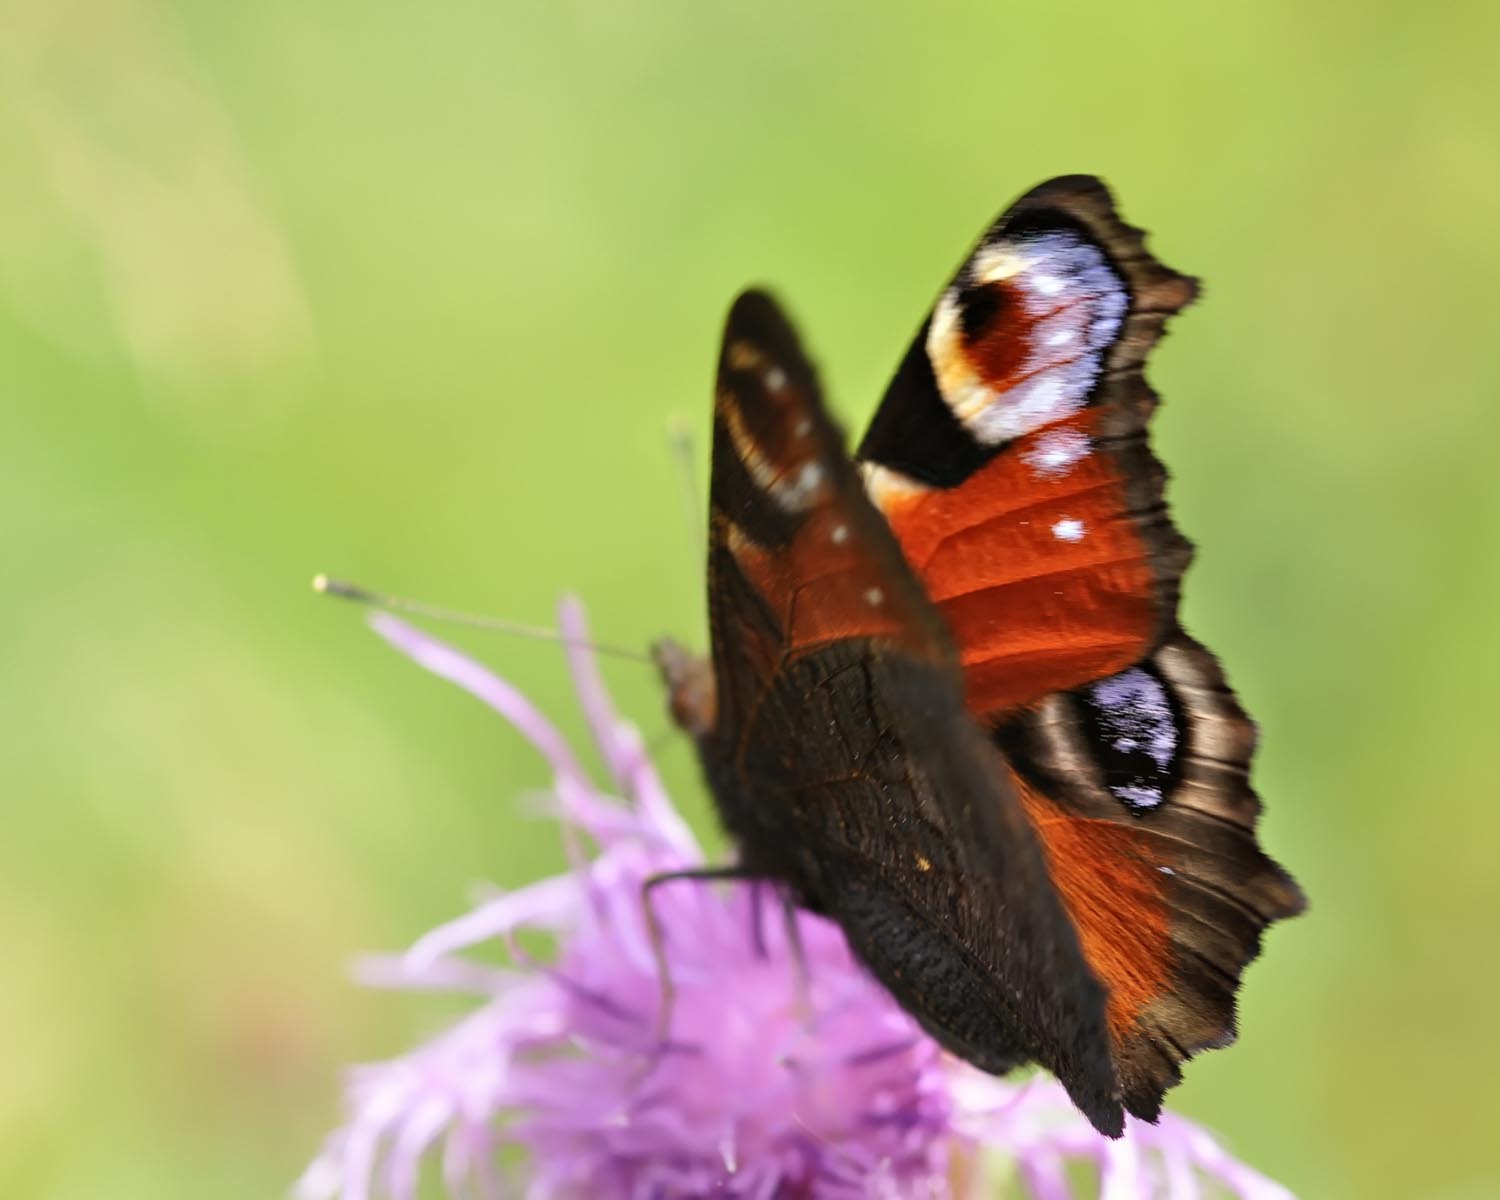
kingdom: Animalia
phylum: Arthropoda
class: Insecta
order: Lepidoptera
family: Nymphalidae
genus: Aglais
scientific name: Aglais io
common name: Peacock
